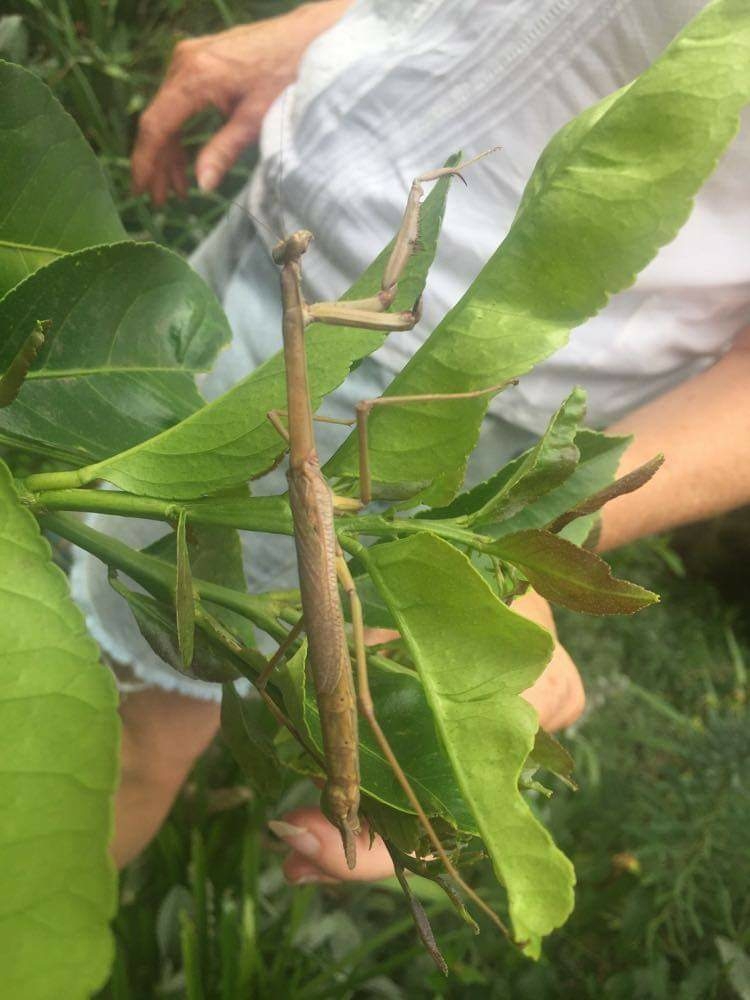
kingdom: Animalia
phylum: Arthropoda
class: Insecta
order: Mantodea
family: Mantidae
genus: Archimantis
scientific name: Archimantis latistyla
